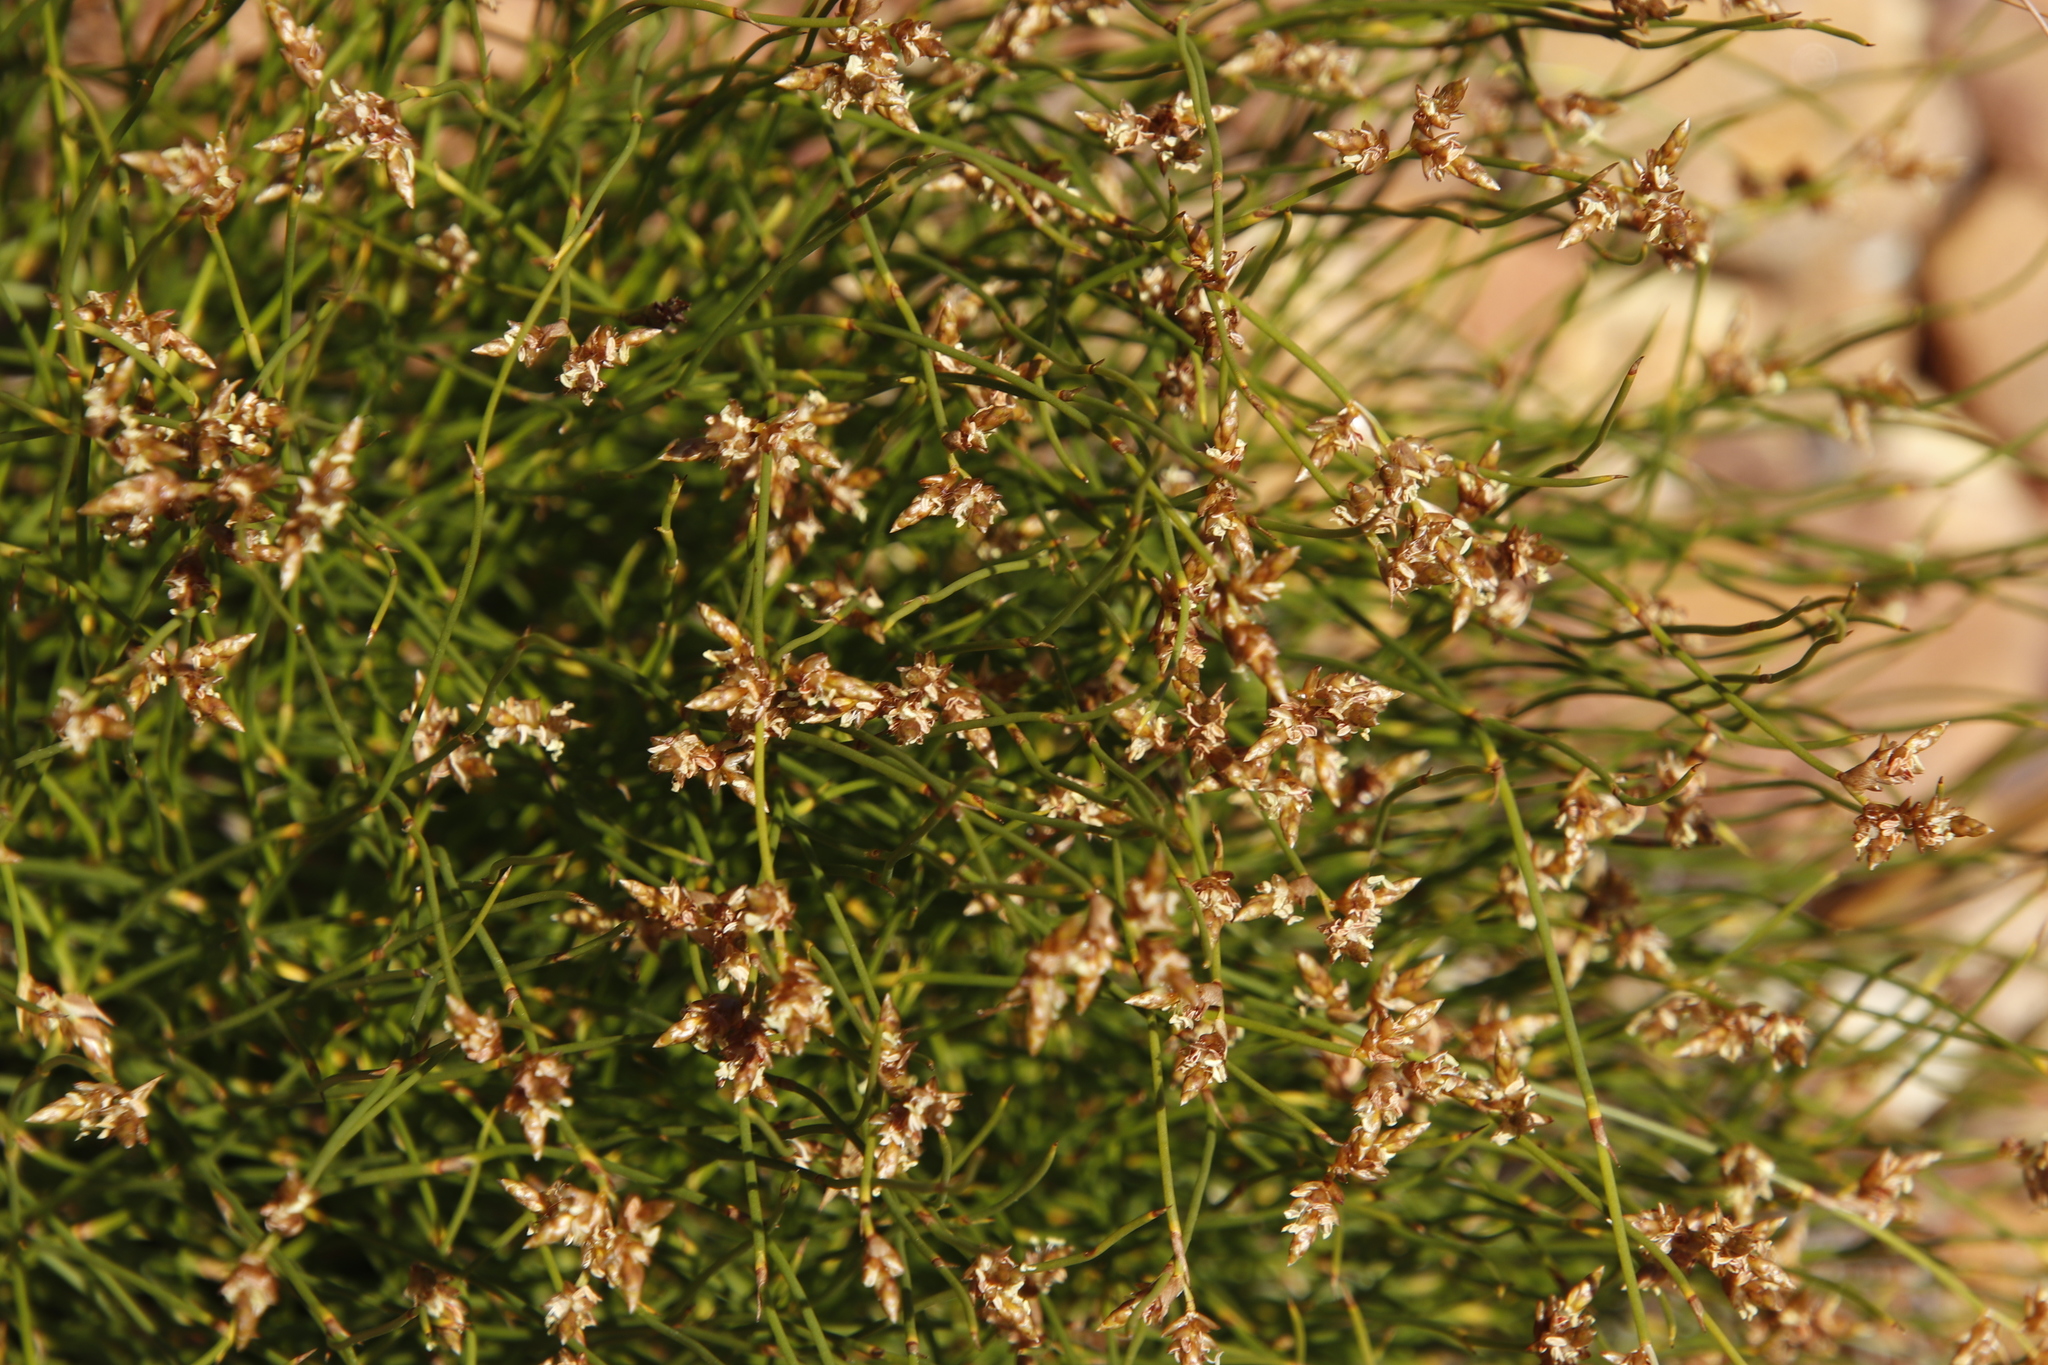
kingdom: Plantae
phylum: Tracheophyta
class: Liliopsida
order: Poales
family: Restionaceae
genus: Mastersiella
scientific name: Mastersiella digitata
